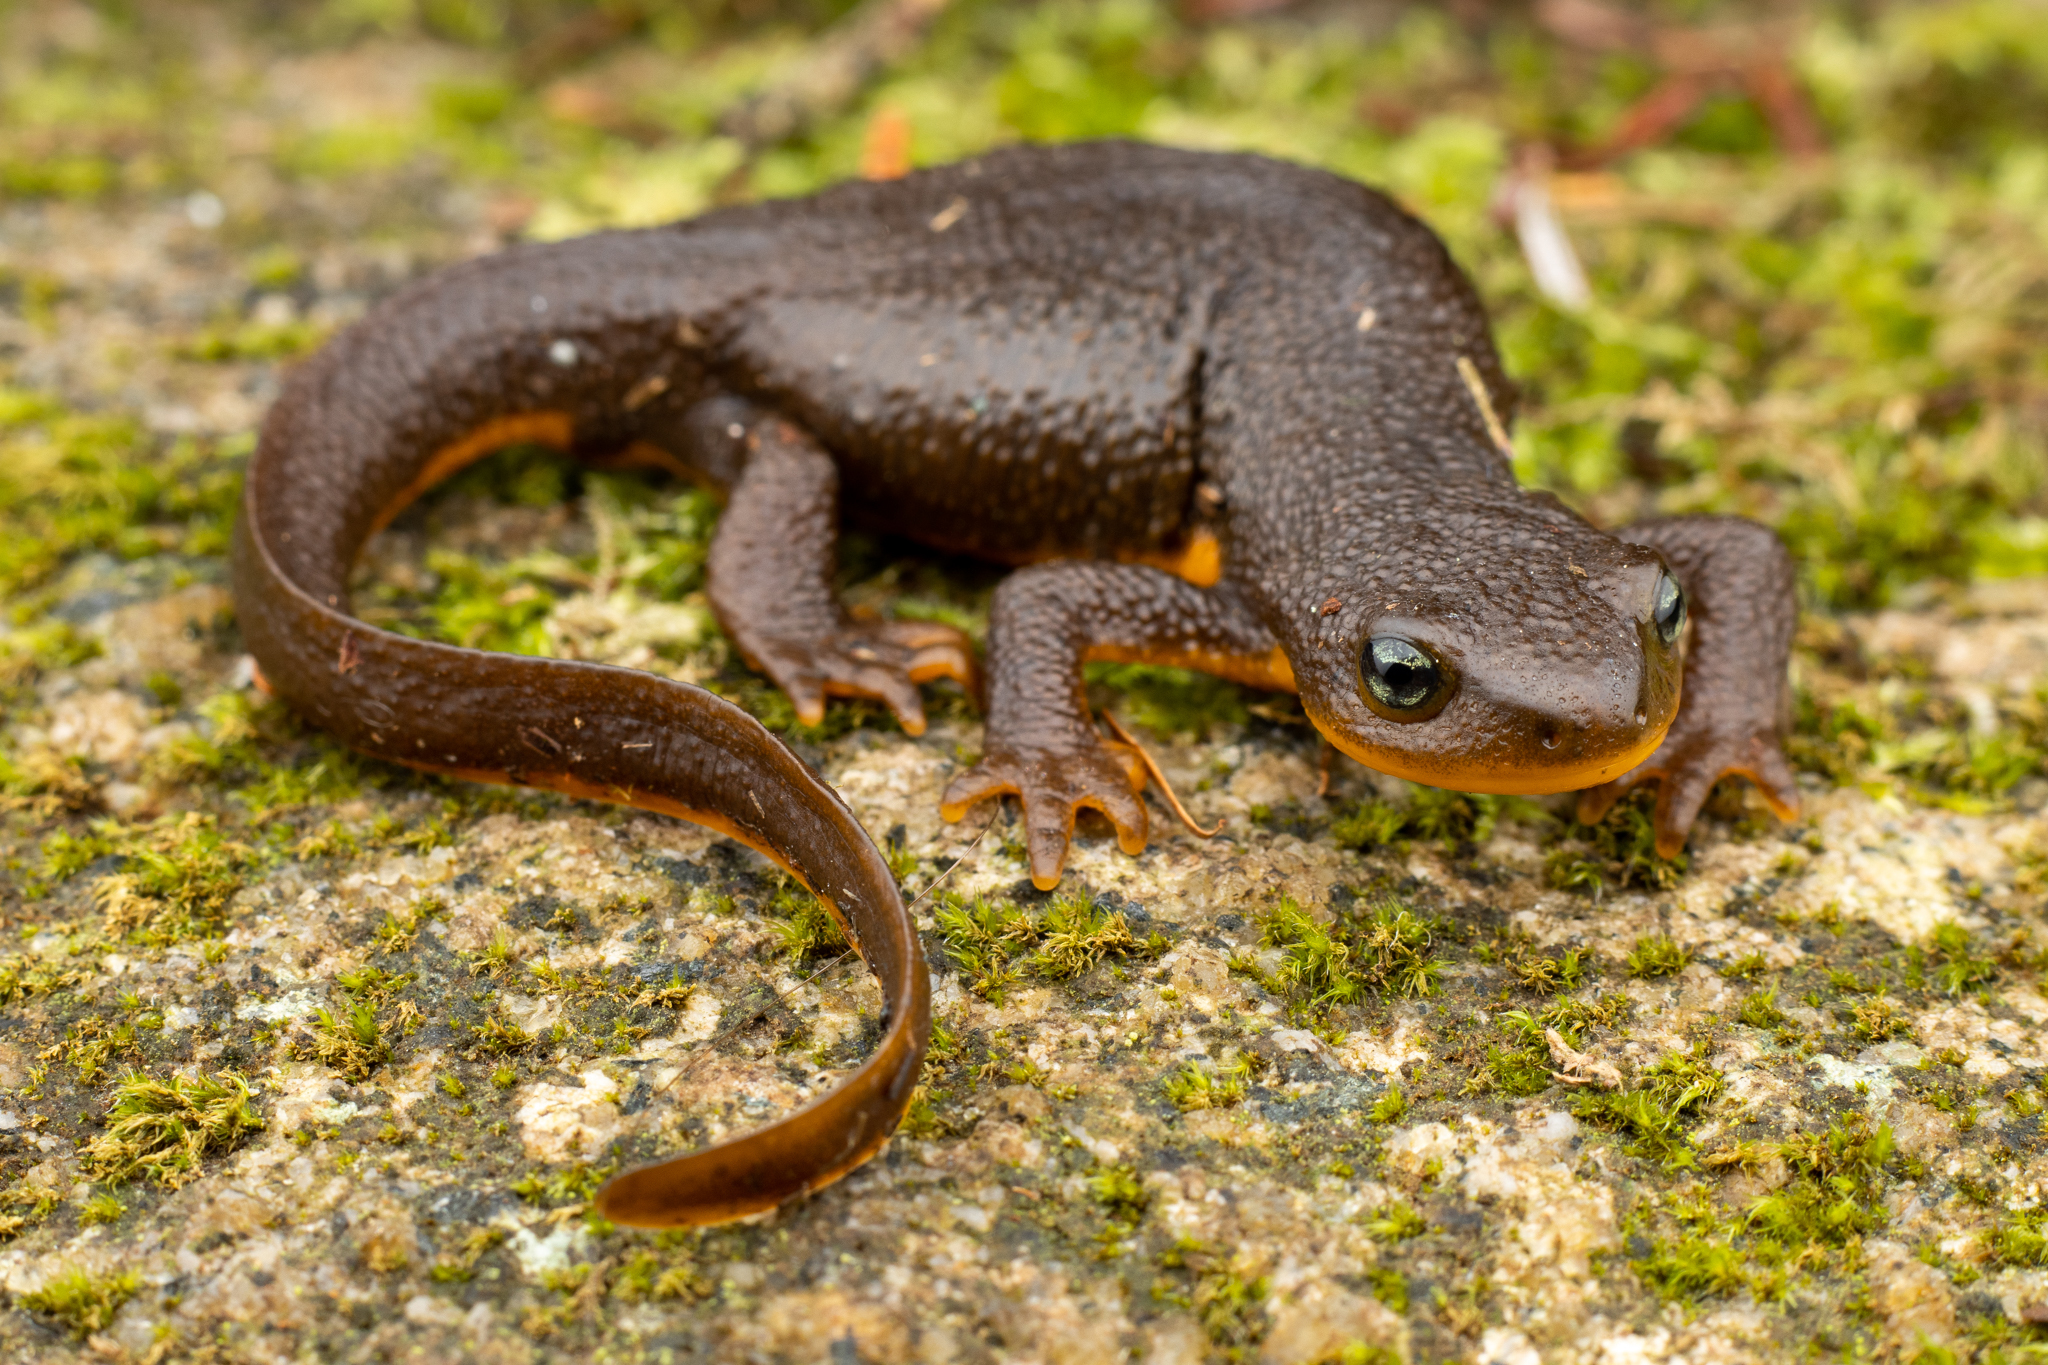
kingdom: Animalia
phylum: Chordata
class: Amphibia
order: Caudata
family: Salamandridae
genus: Taricha
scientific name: Taricha granulosa
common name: Roughskin newt
